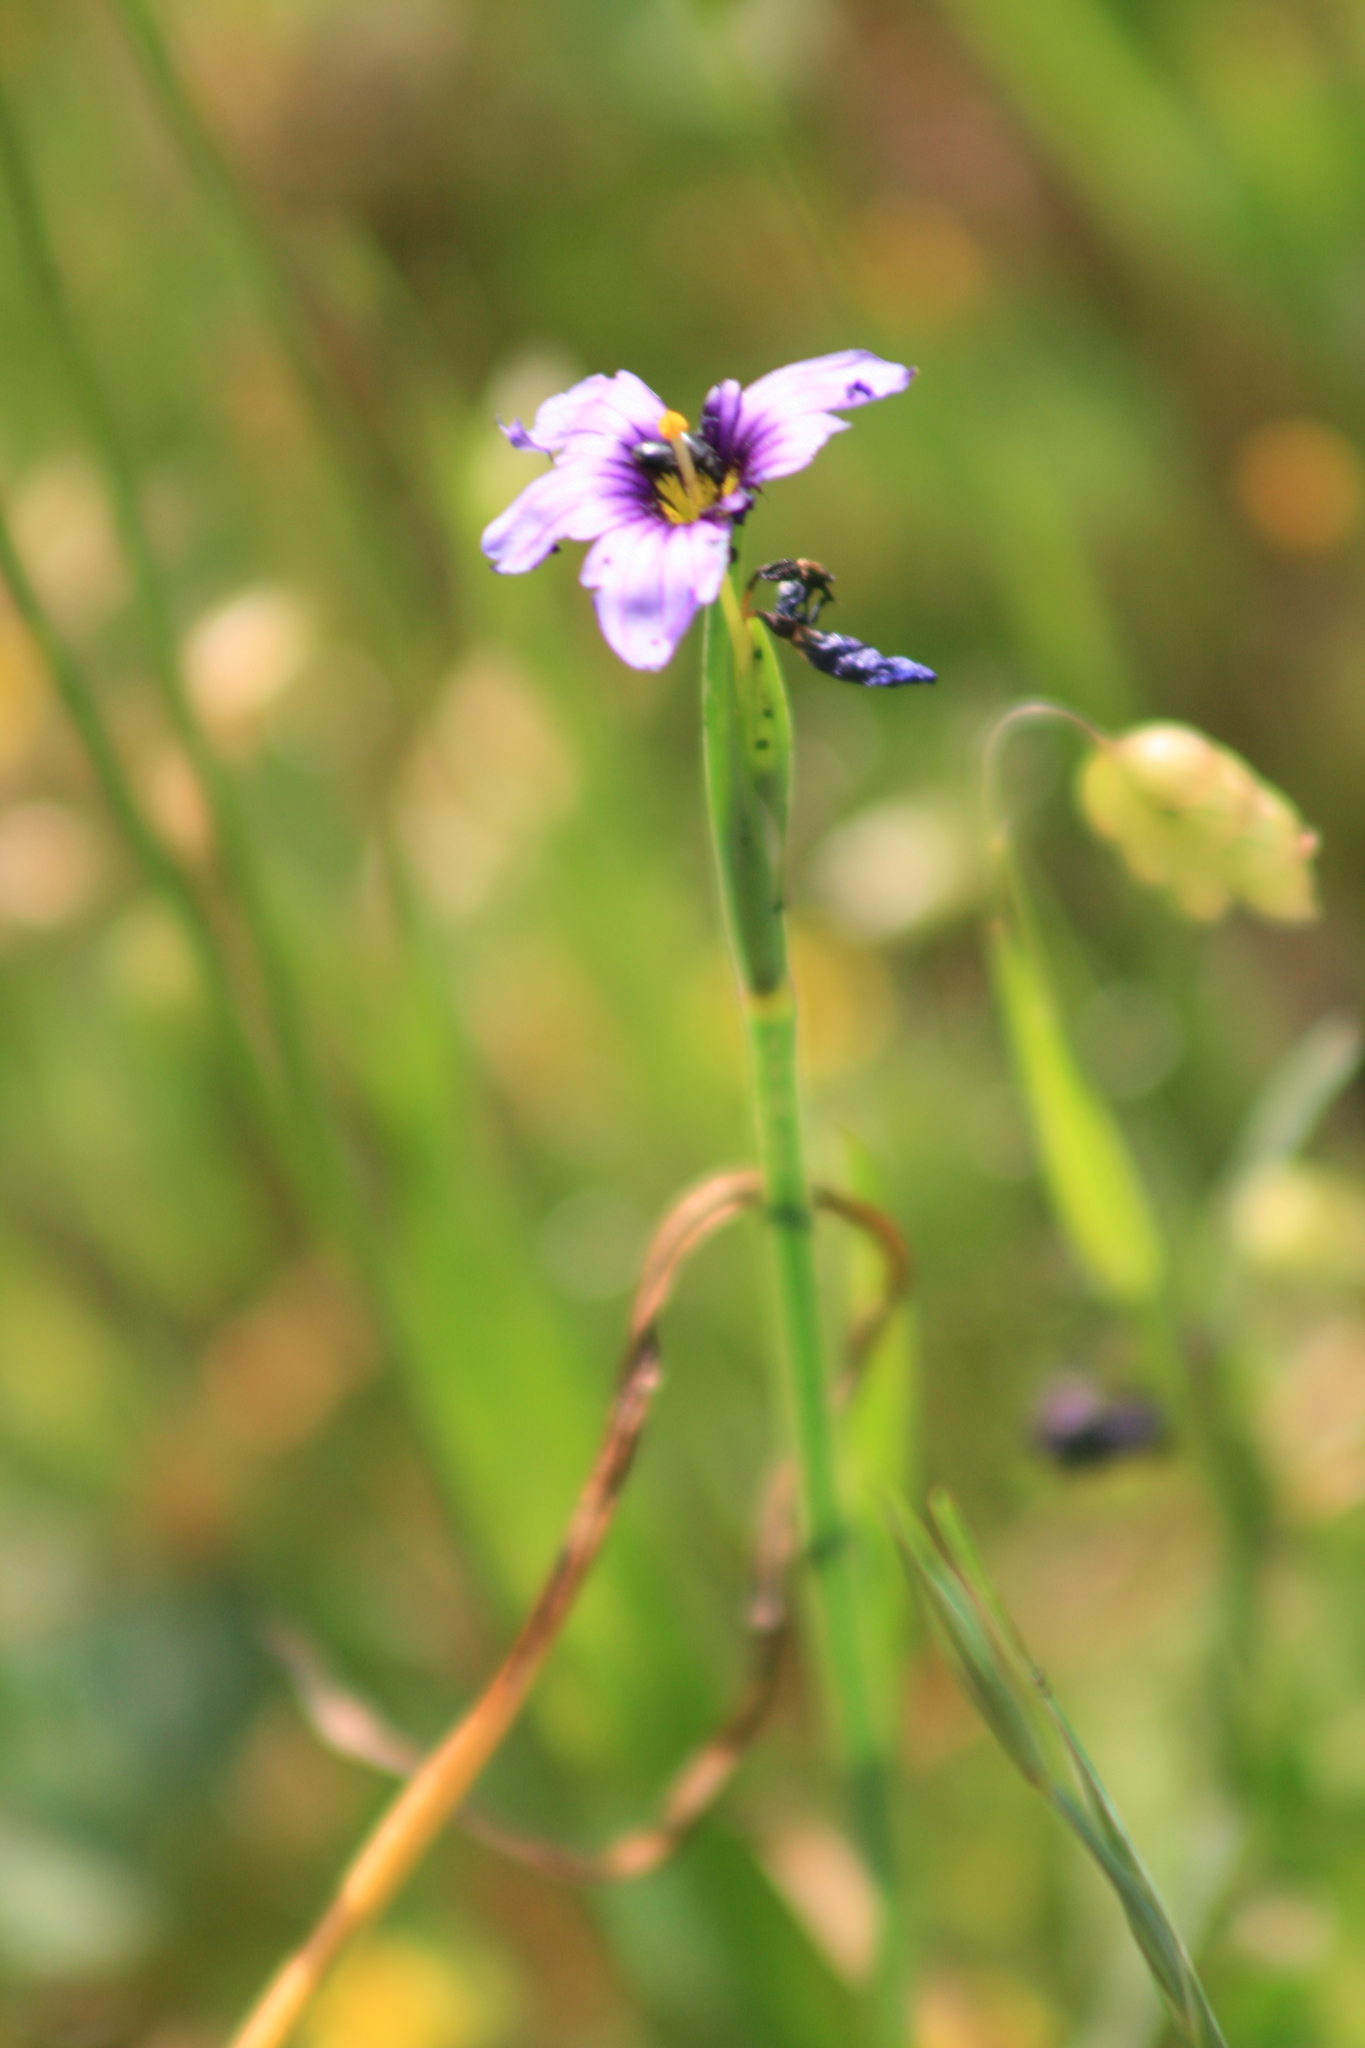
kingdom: Plantae
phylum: Tracheophyta
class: Liliopsida
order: Asparagales
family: Iridaceae
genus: Sisyrinchium
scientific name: Sisyrinchium bellum
